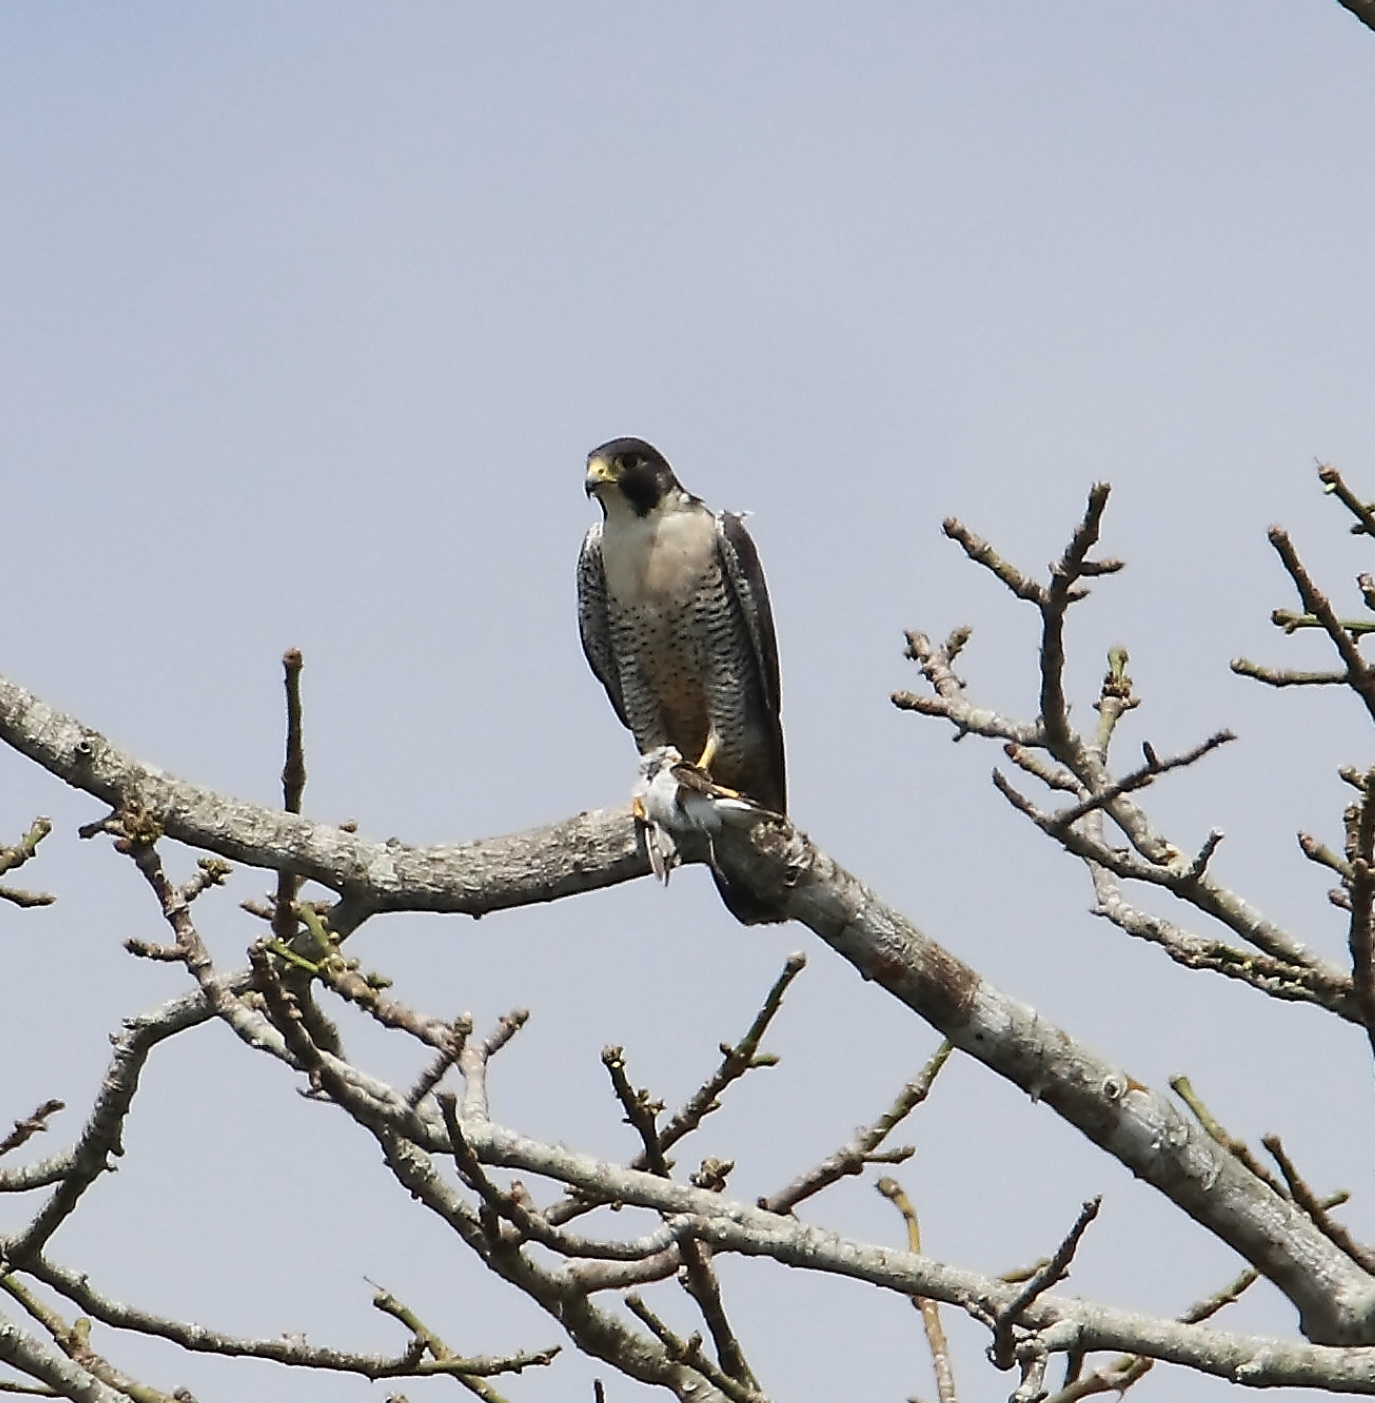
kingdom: Animalia
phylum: Chordata
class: Aves
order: Falconiformes
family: Falconidae
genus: Falco
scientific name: Falco peregrinus
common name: Peregrine falcon
